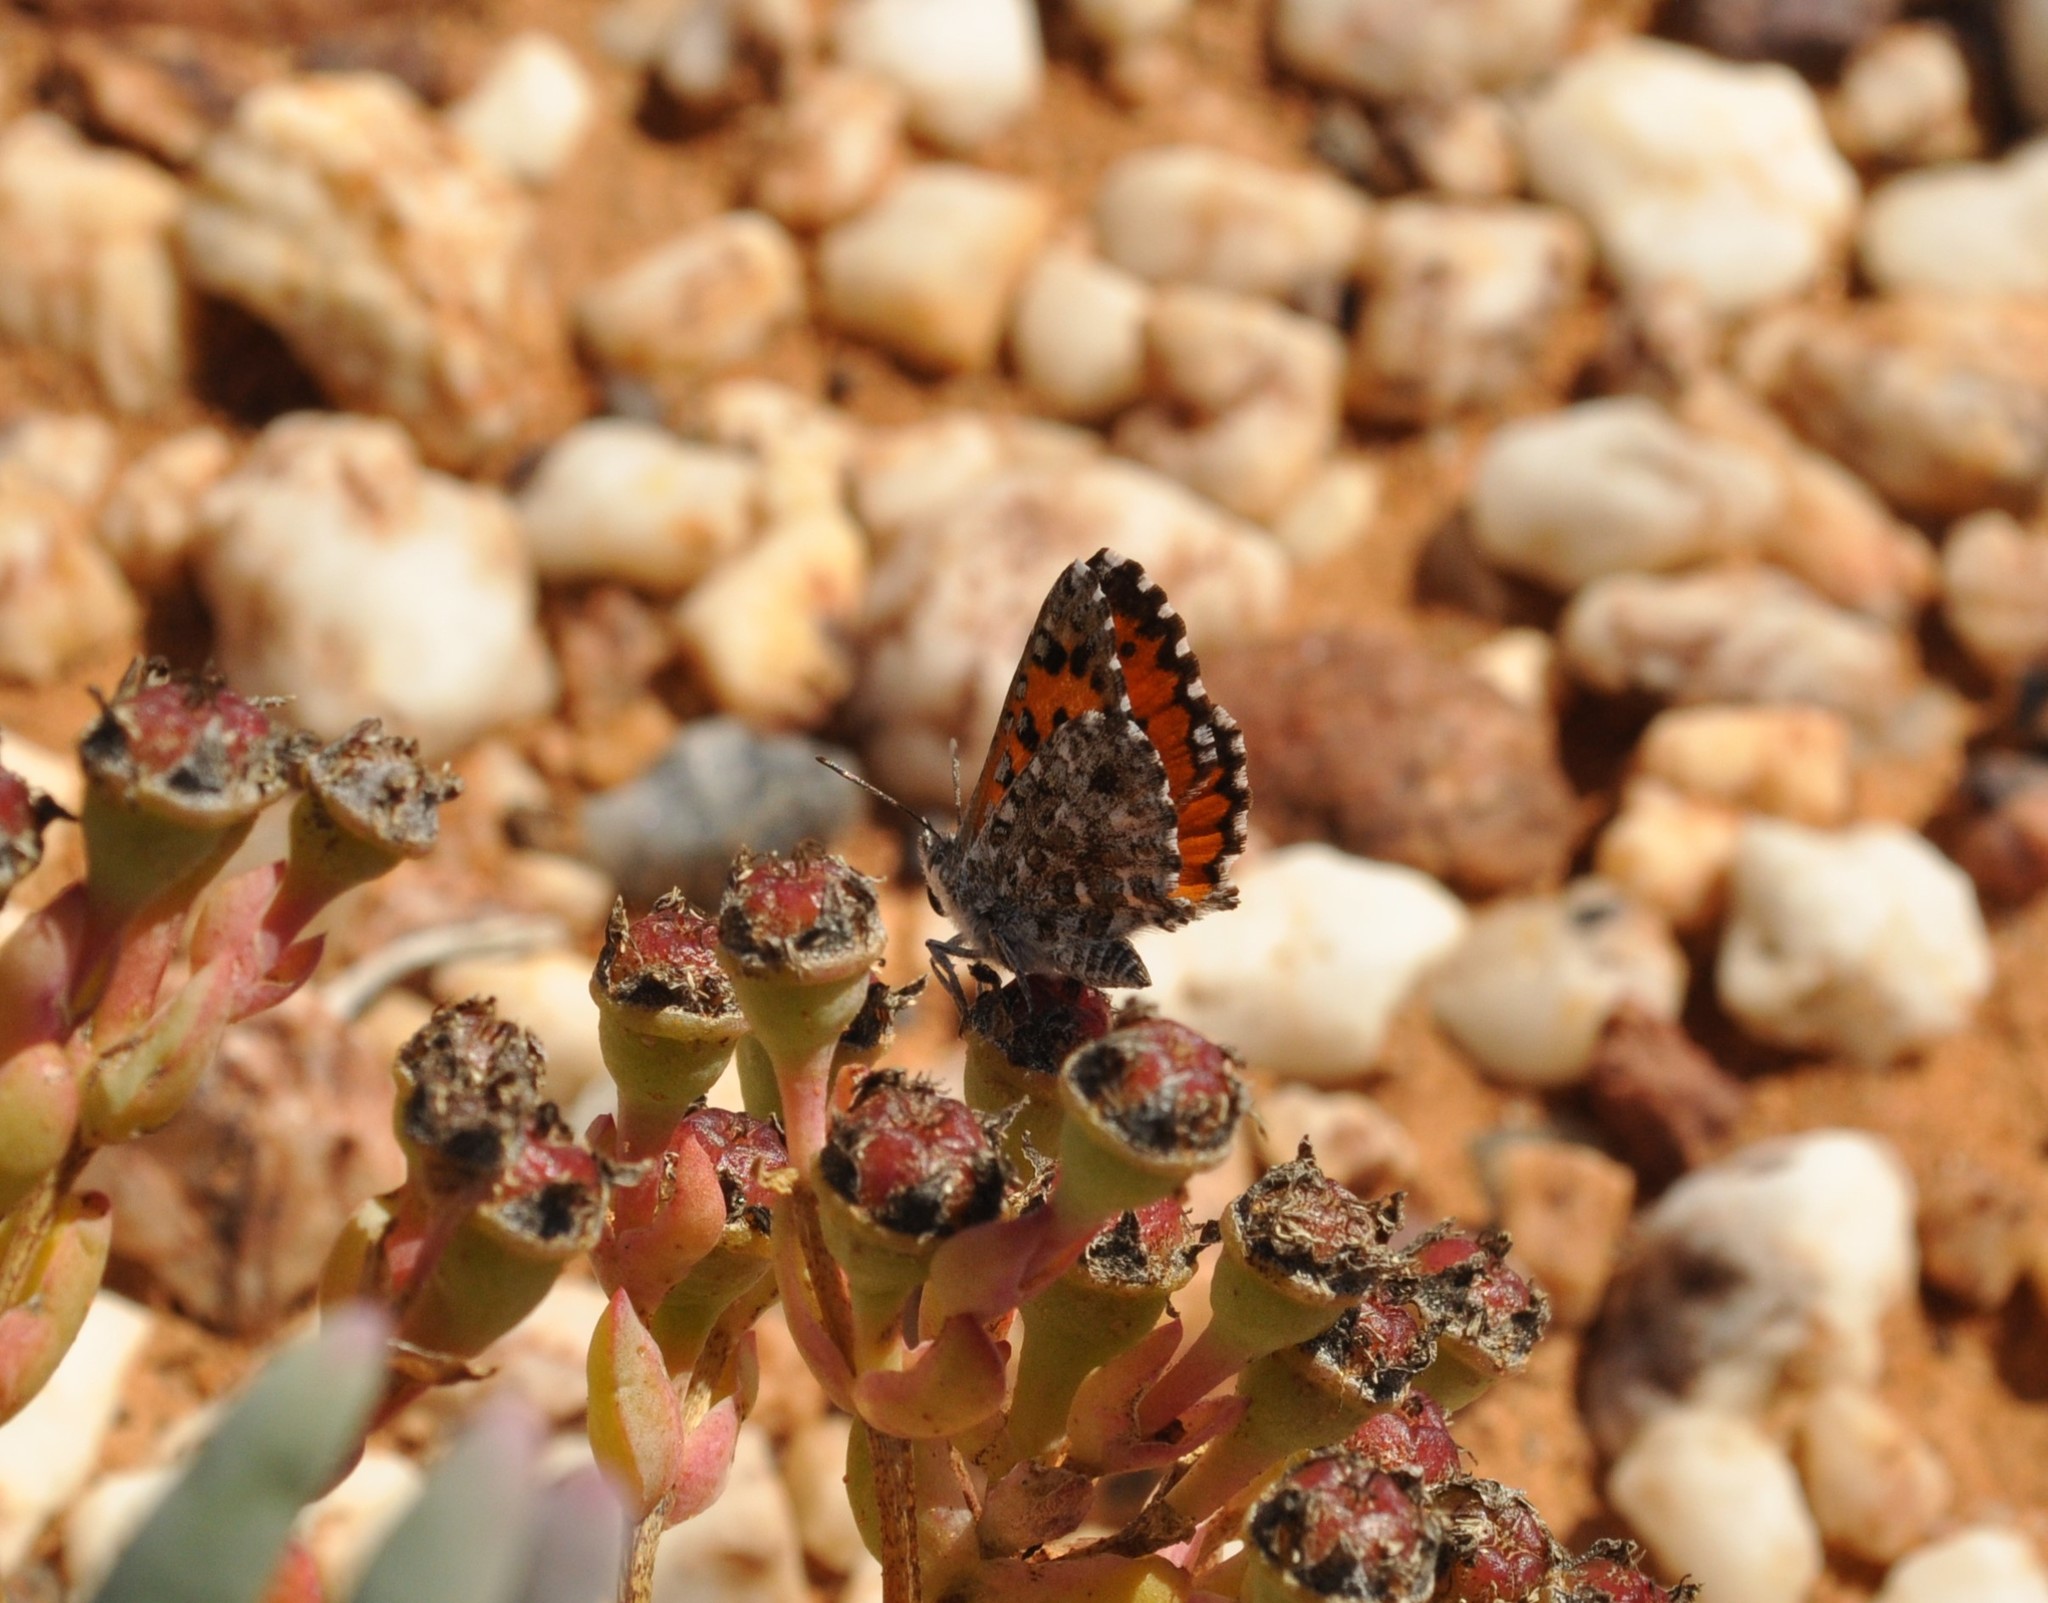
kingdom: Animalia
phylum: Arthropoda
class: Insecta
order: Lepidoptera
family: Lycaenidae
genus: Zeritis
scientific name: Zeritis chrysantas
